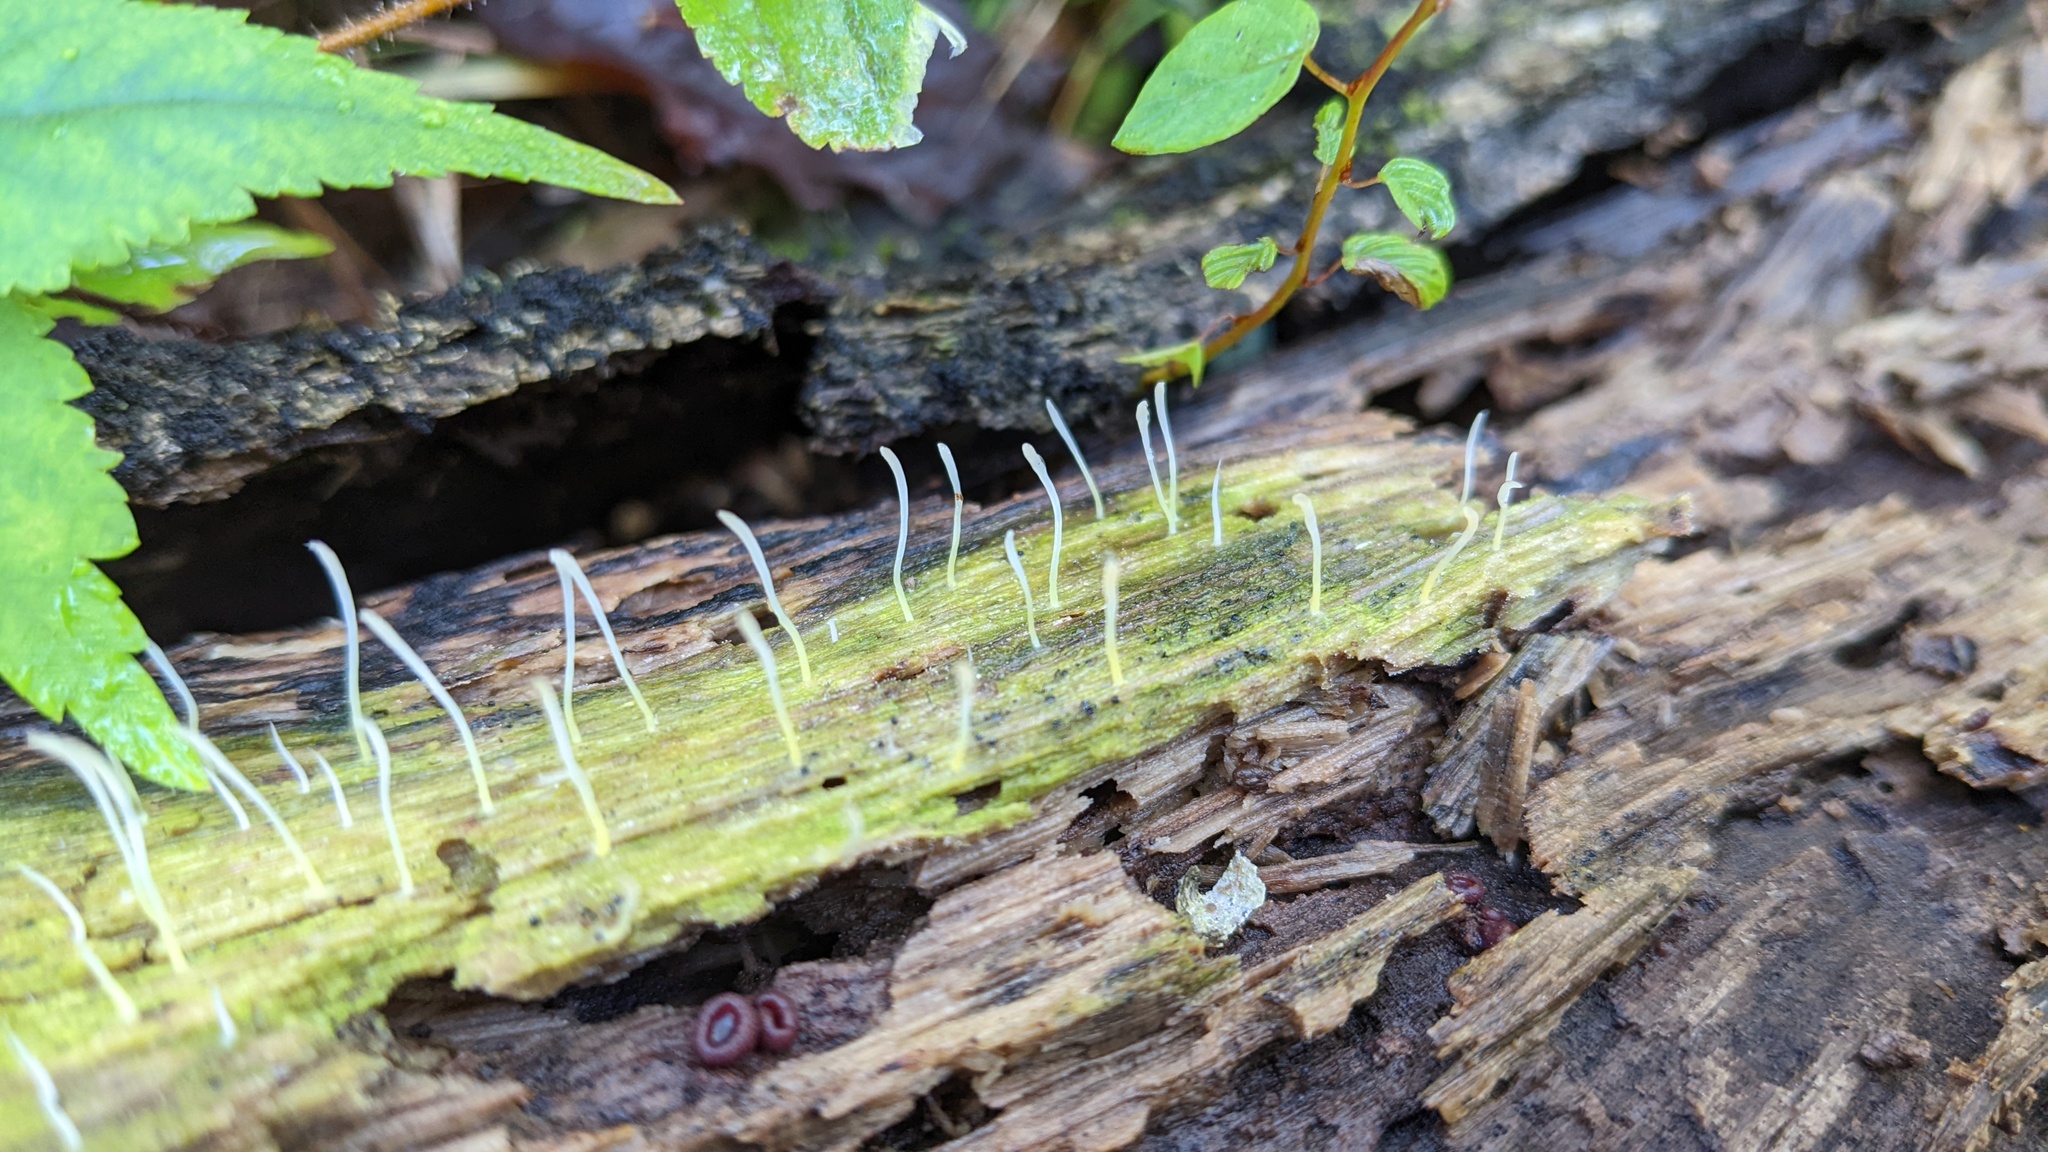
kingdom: Fungi
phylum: Basidiomycota
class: Agaricomycetes
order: Cantharellales
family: Hydnaceae
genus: Multiclavula
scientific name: Multiclavula mucida
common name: White green-algae coral
